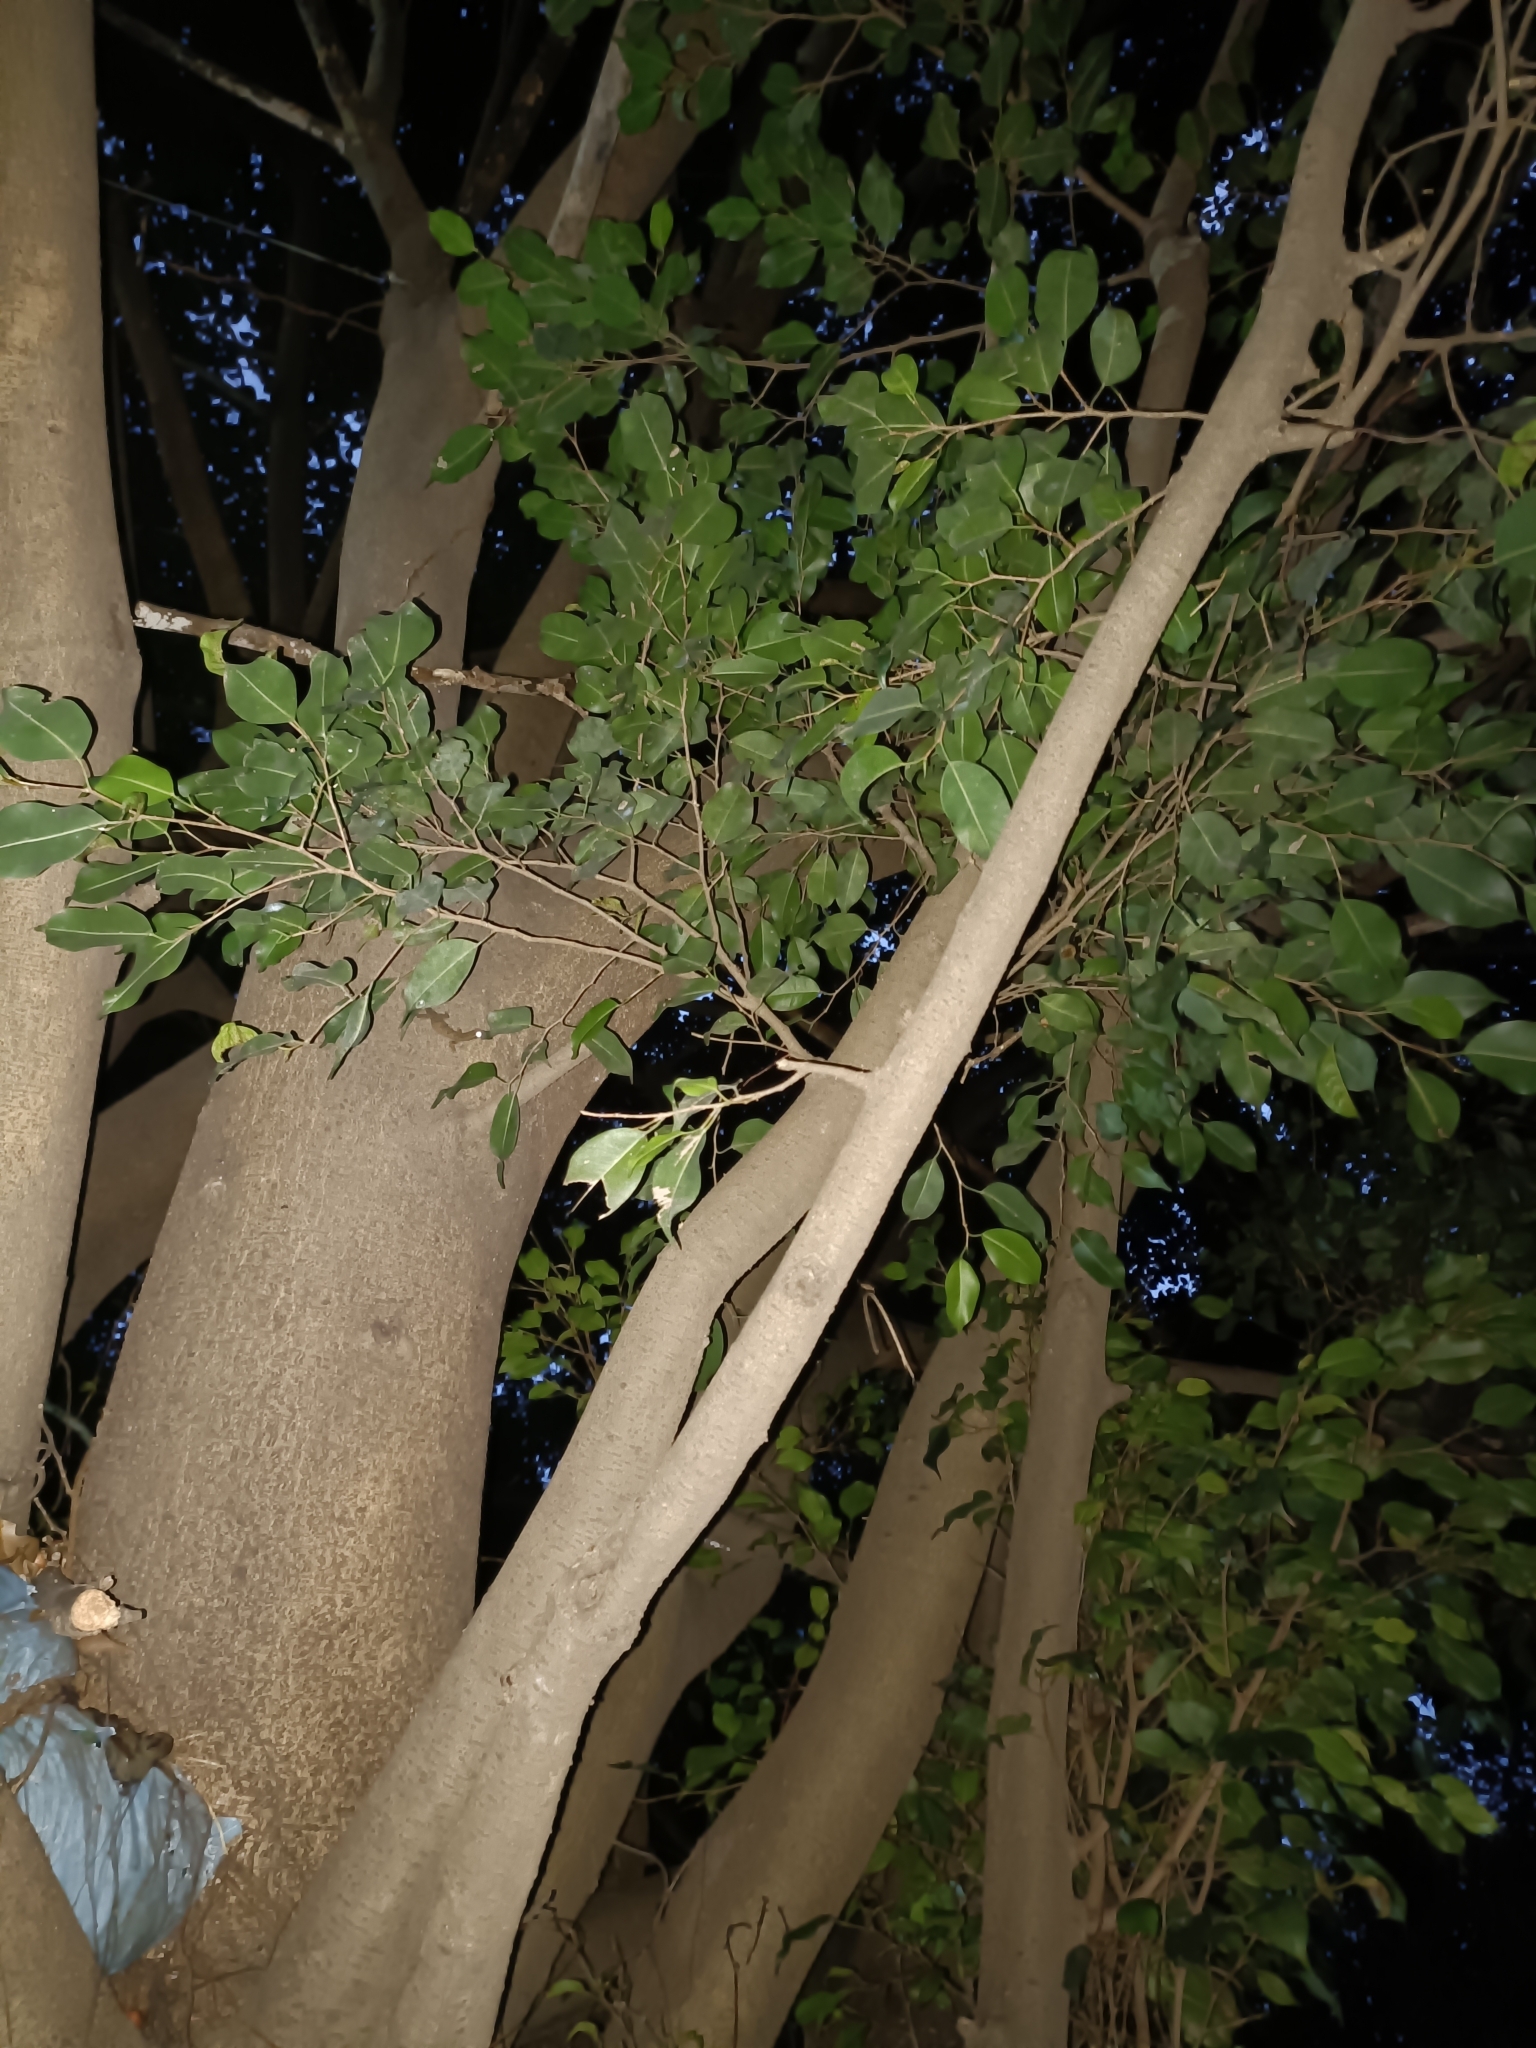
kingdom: Plantae
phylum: Tracheophyta
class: Magnoliopsida
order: Rosales
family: Moraceae
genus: Ficus
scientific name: Ficus benjamina
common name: Weeping fig
